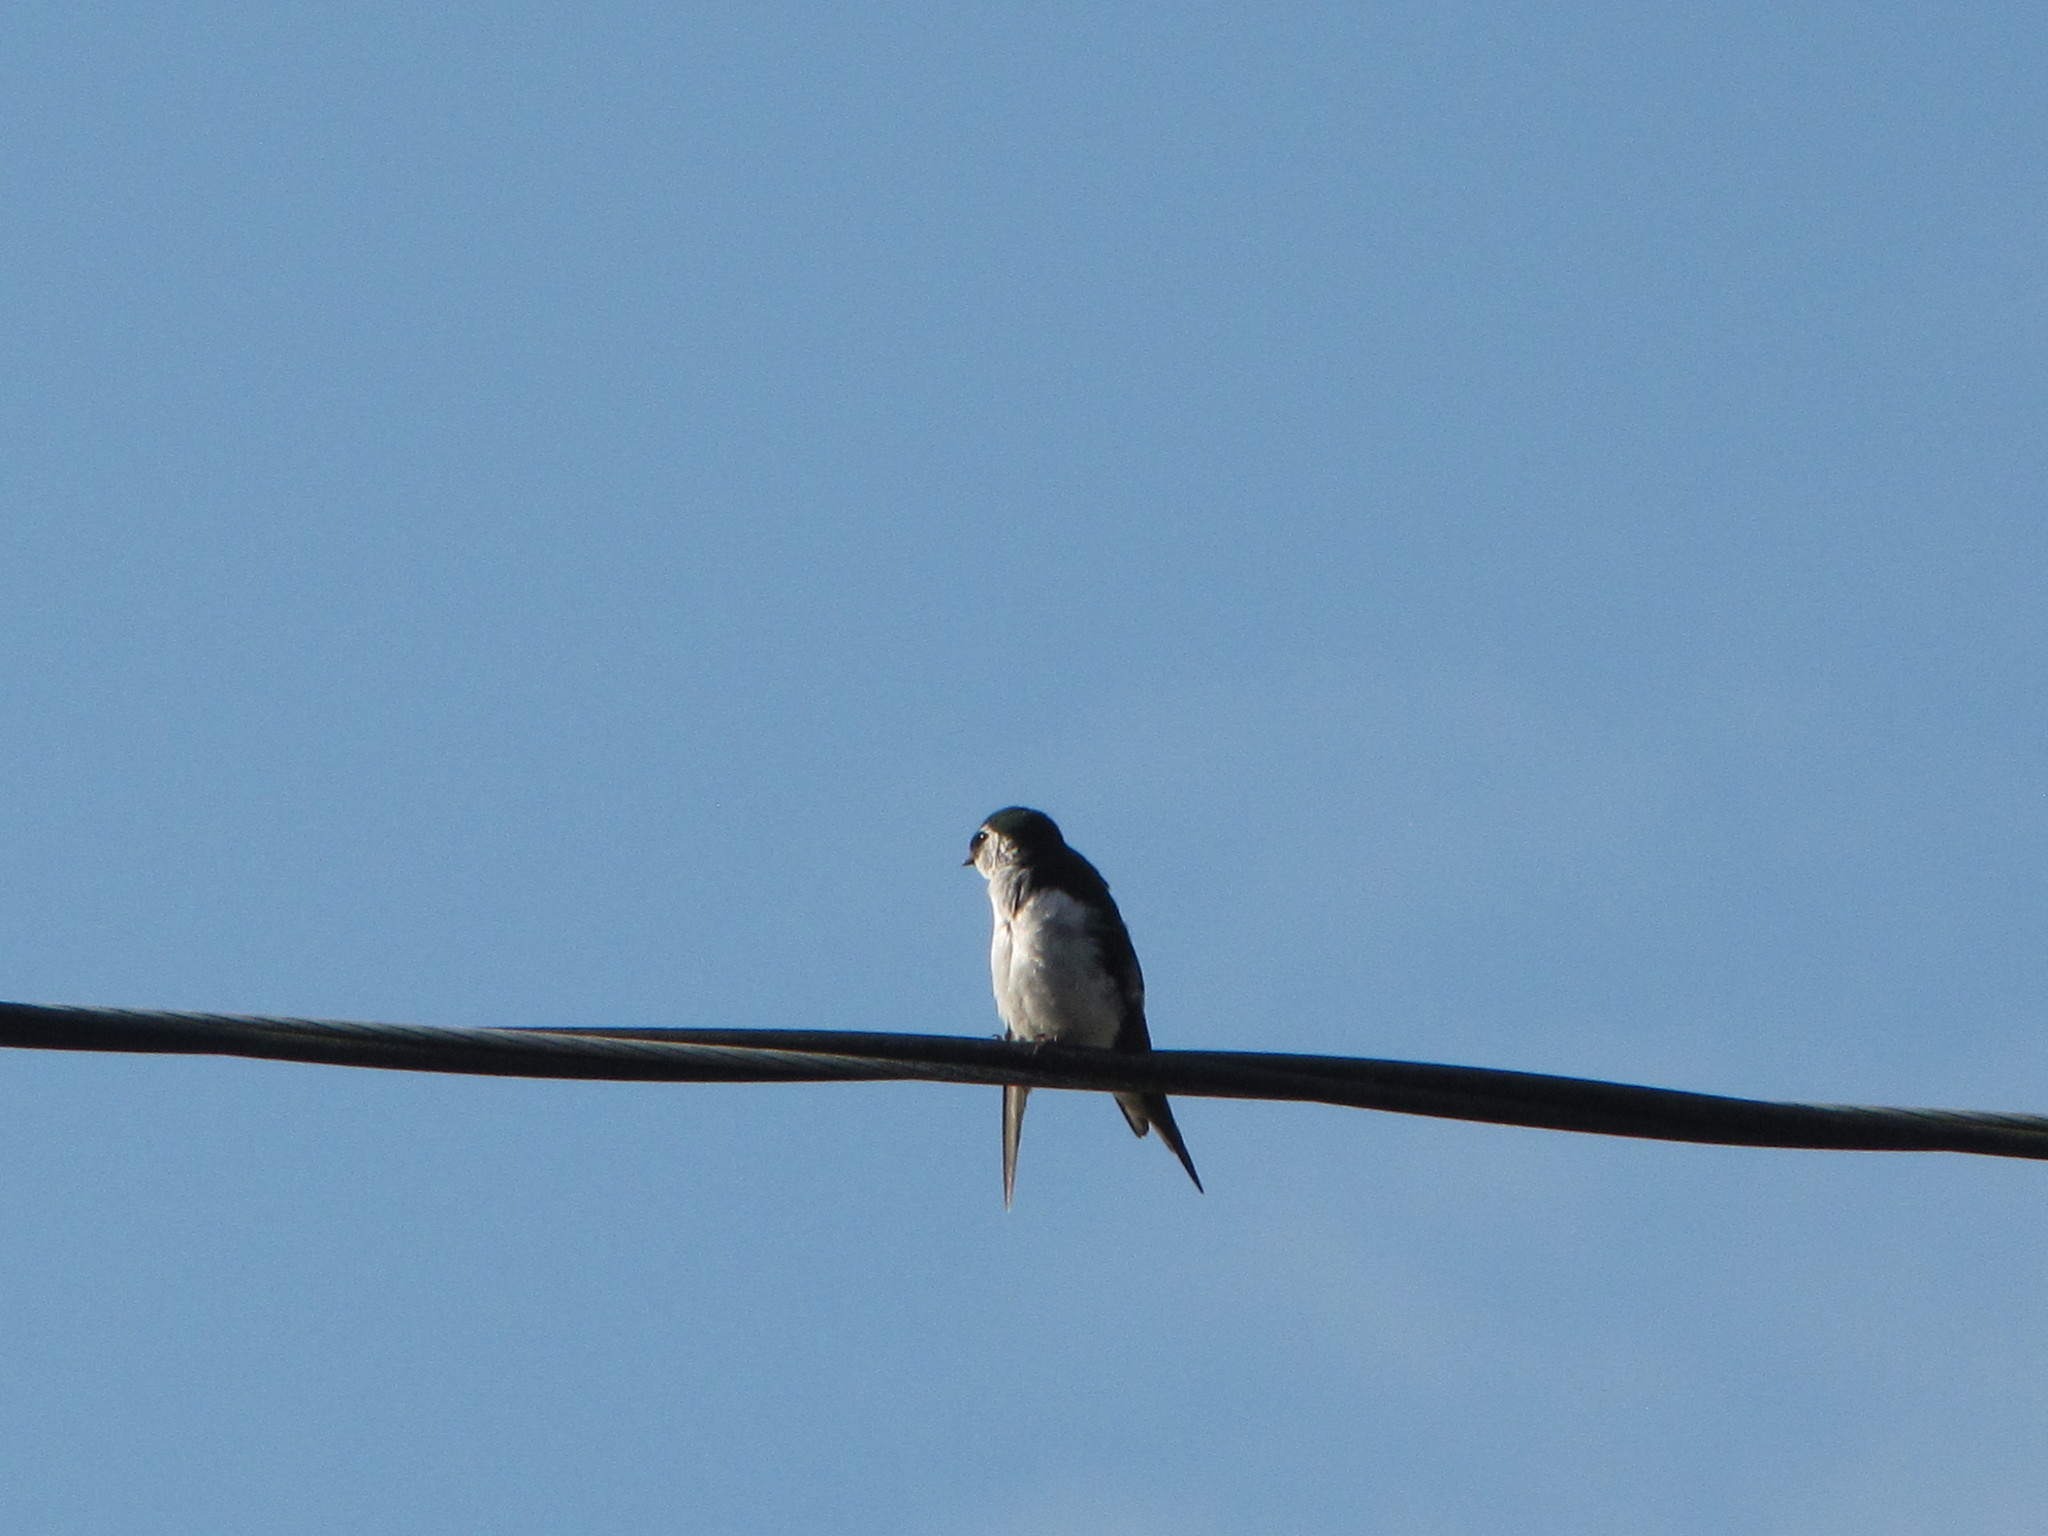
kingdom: Animalia
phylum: Chordata
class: Aves
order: Passeriformes
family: Hirundinidae
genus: Tachycineta
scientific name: Tachycineta thalassina
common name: Violet-green swallow
